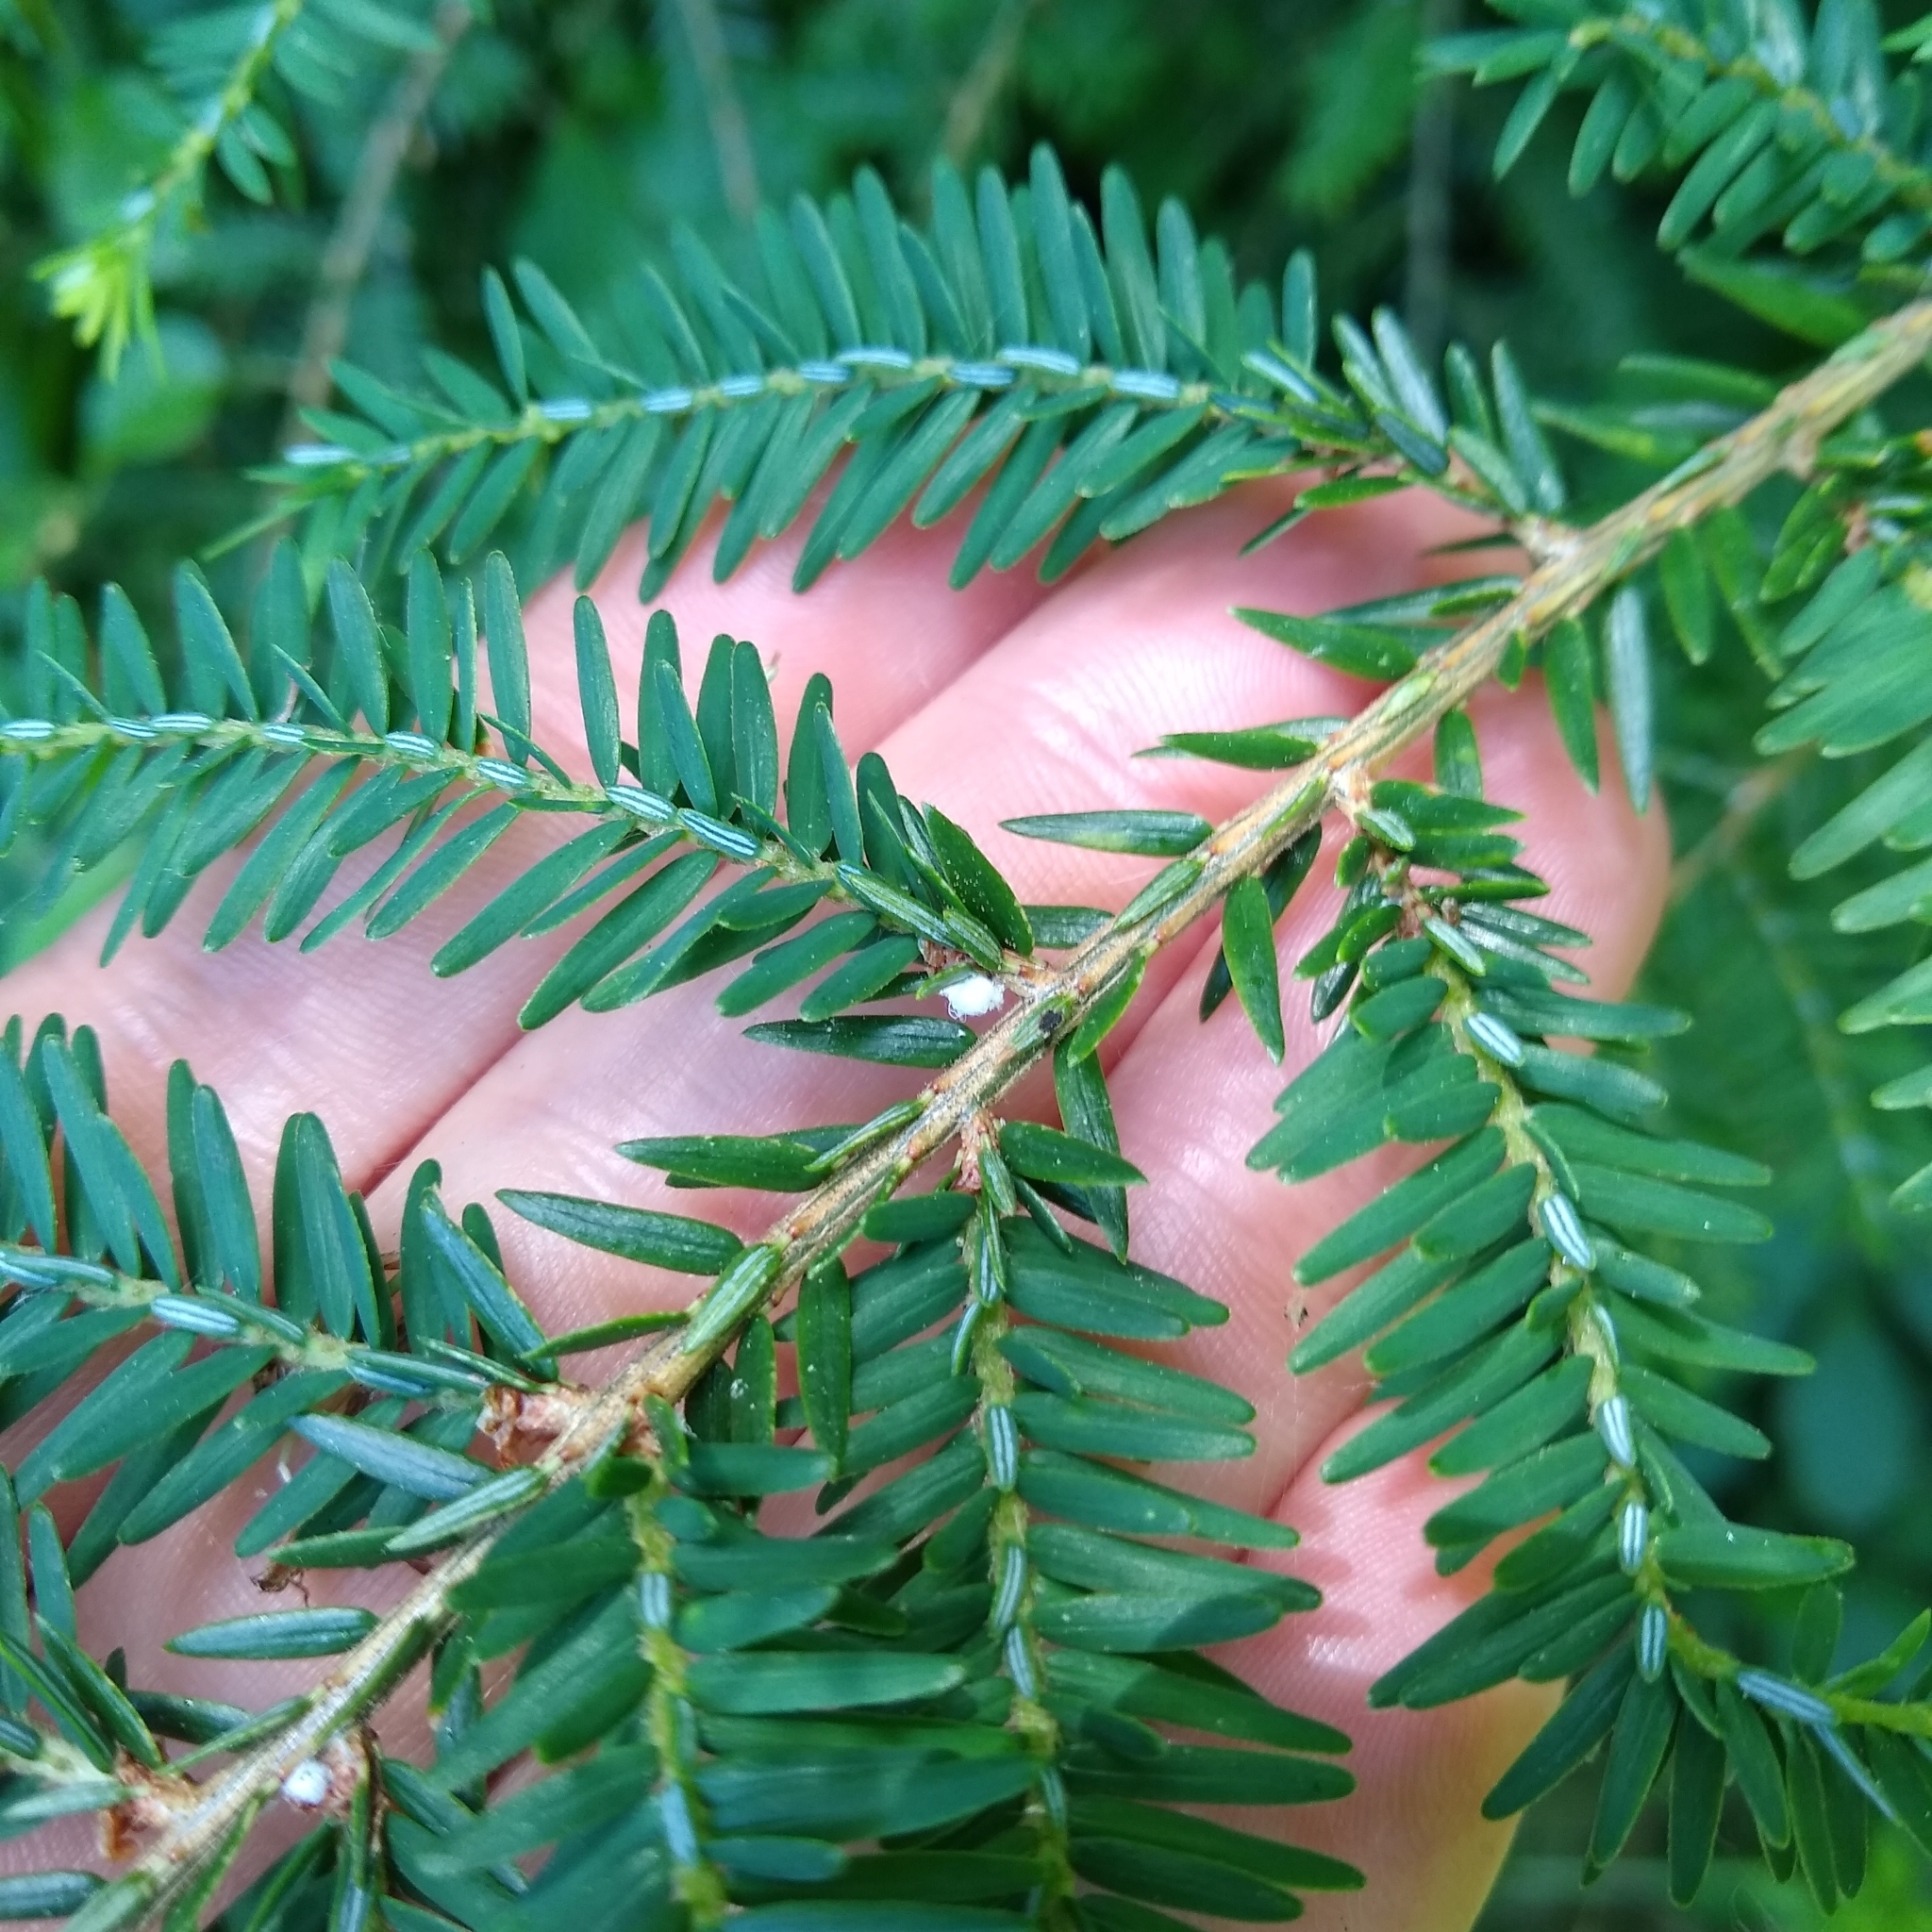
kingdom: Animalia
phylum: Arthropoda
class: Insecta
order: Hemiptera
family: Adelgidae
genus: Adelges
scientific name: Adelges tsugae
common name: Hemlock woolly adelgid
